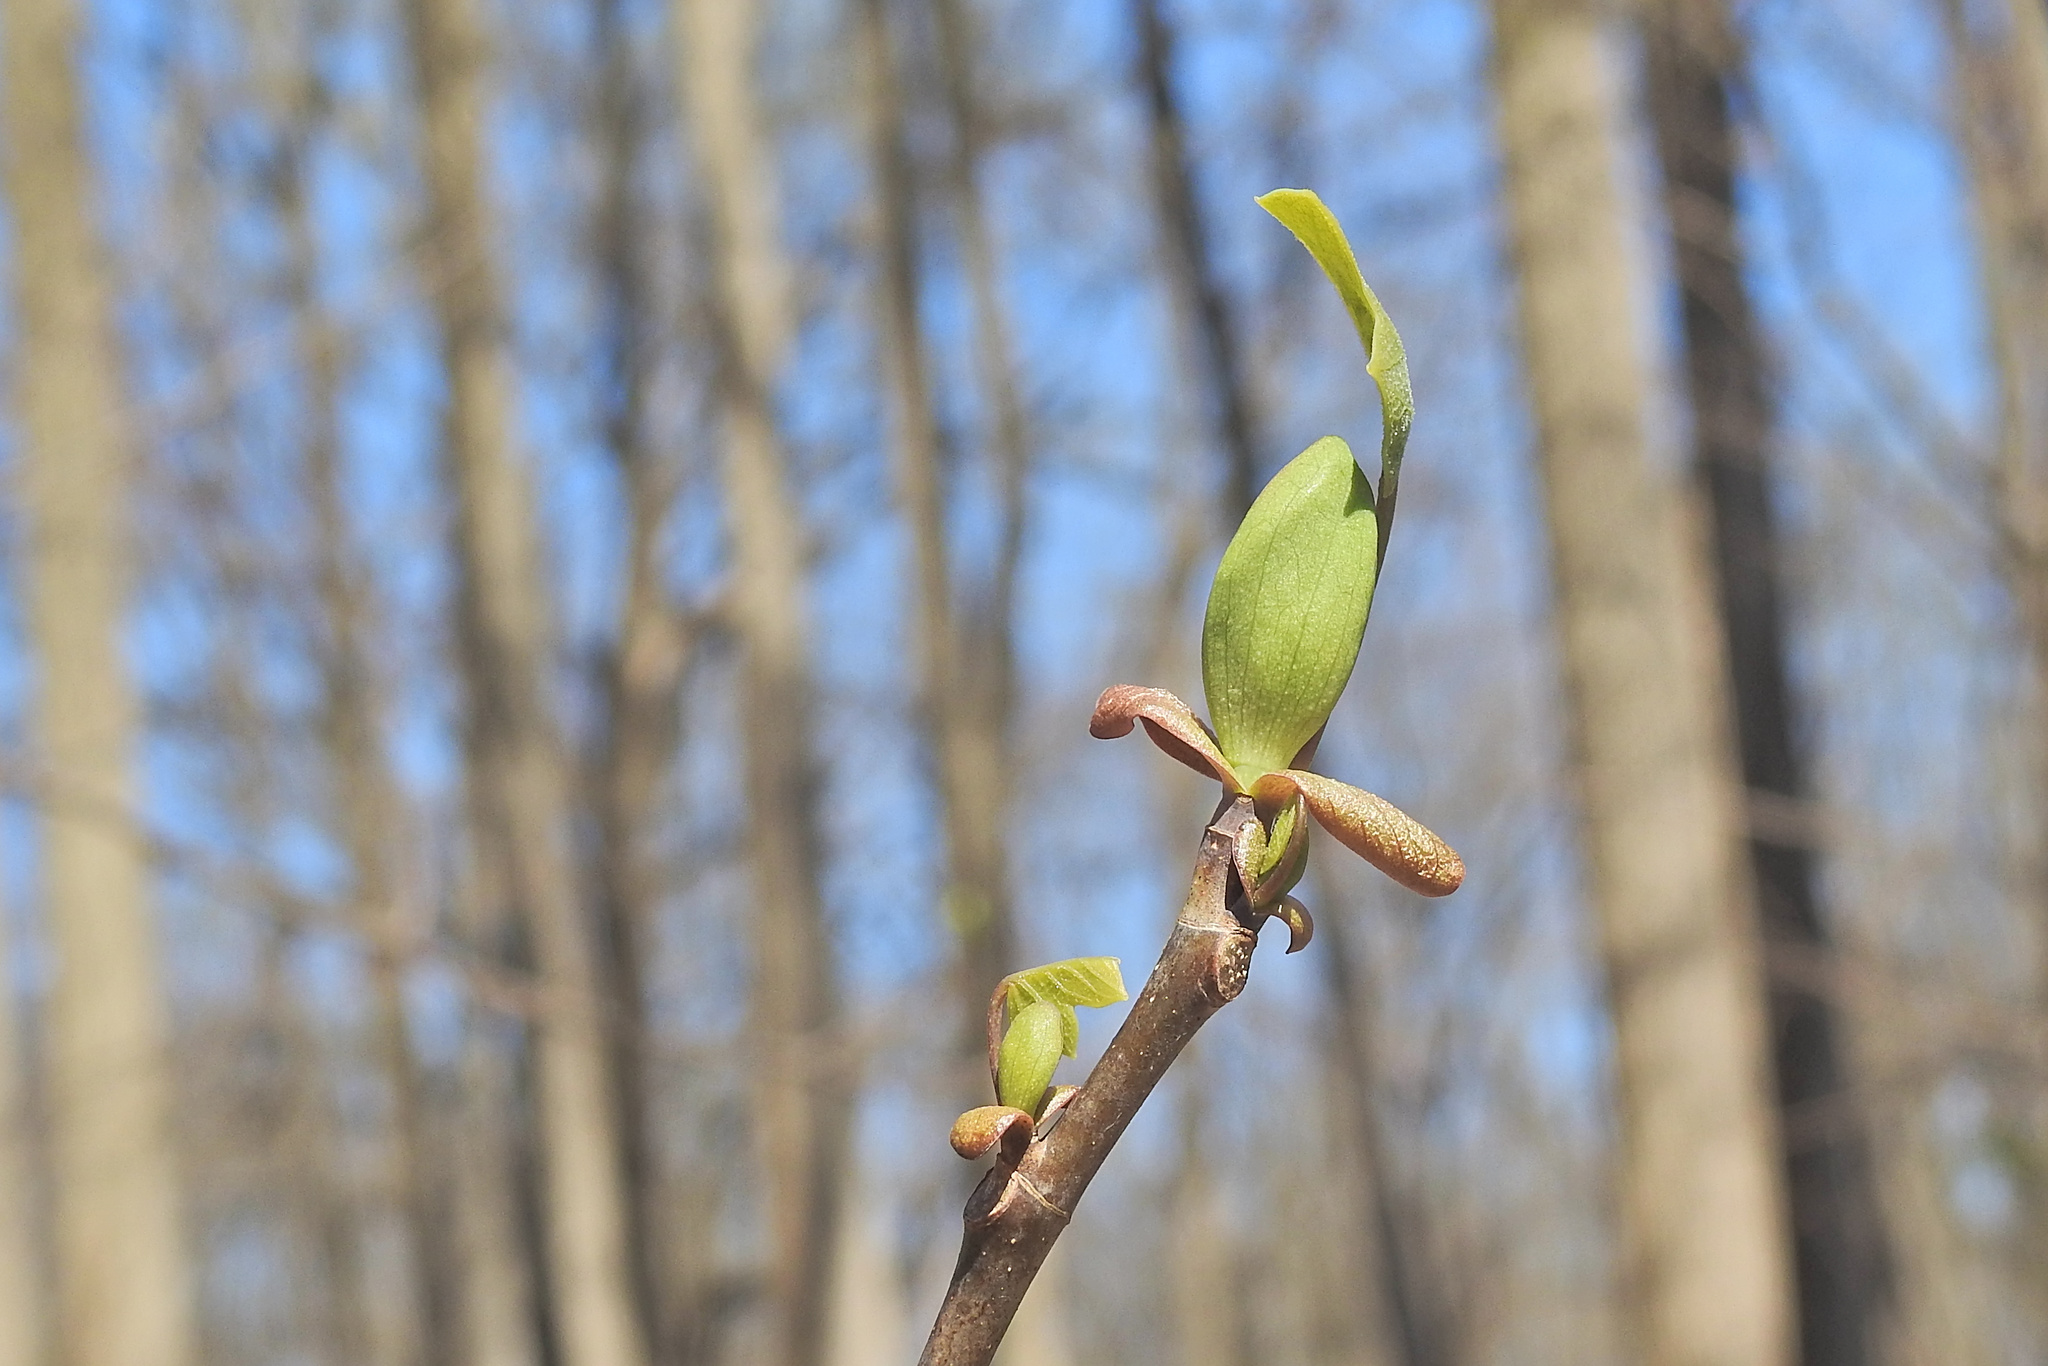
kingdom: Plantae
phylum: Tracheophyta
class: Magnoliopsida
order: Magnoliales
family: Magnoliaceae
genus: Liriodendron
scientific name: Liriodendron tulipifera
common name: Tulip tree
